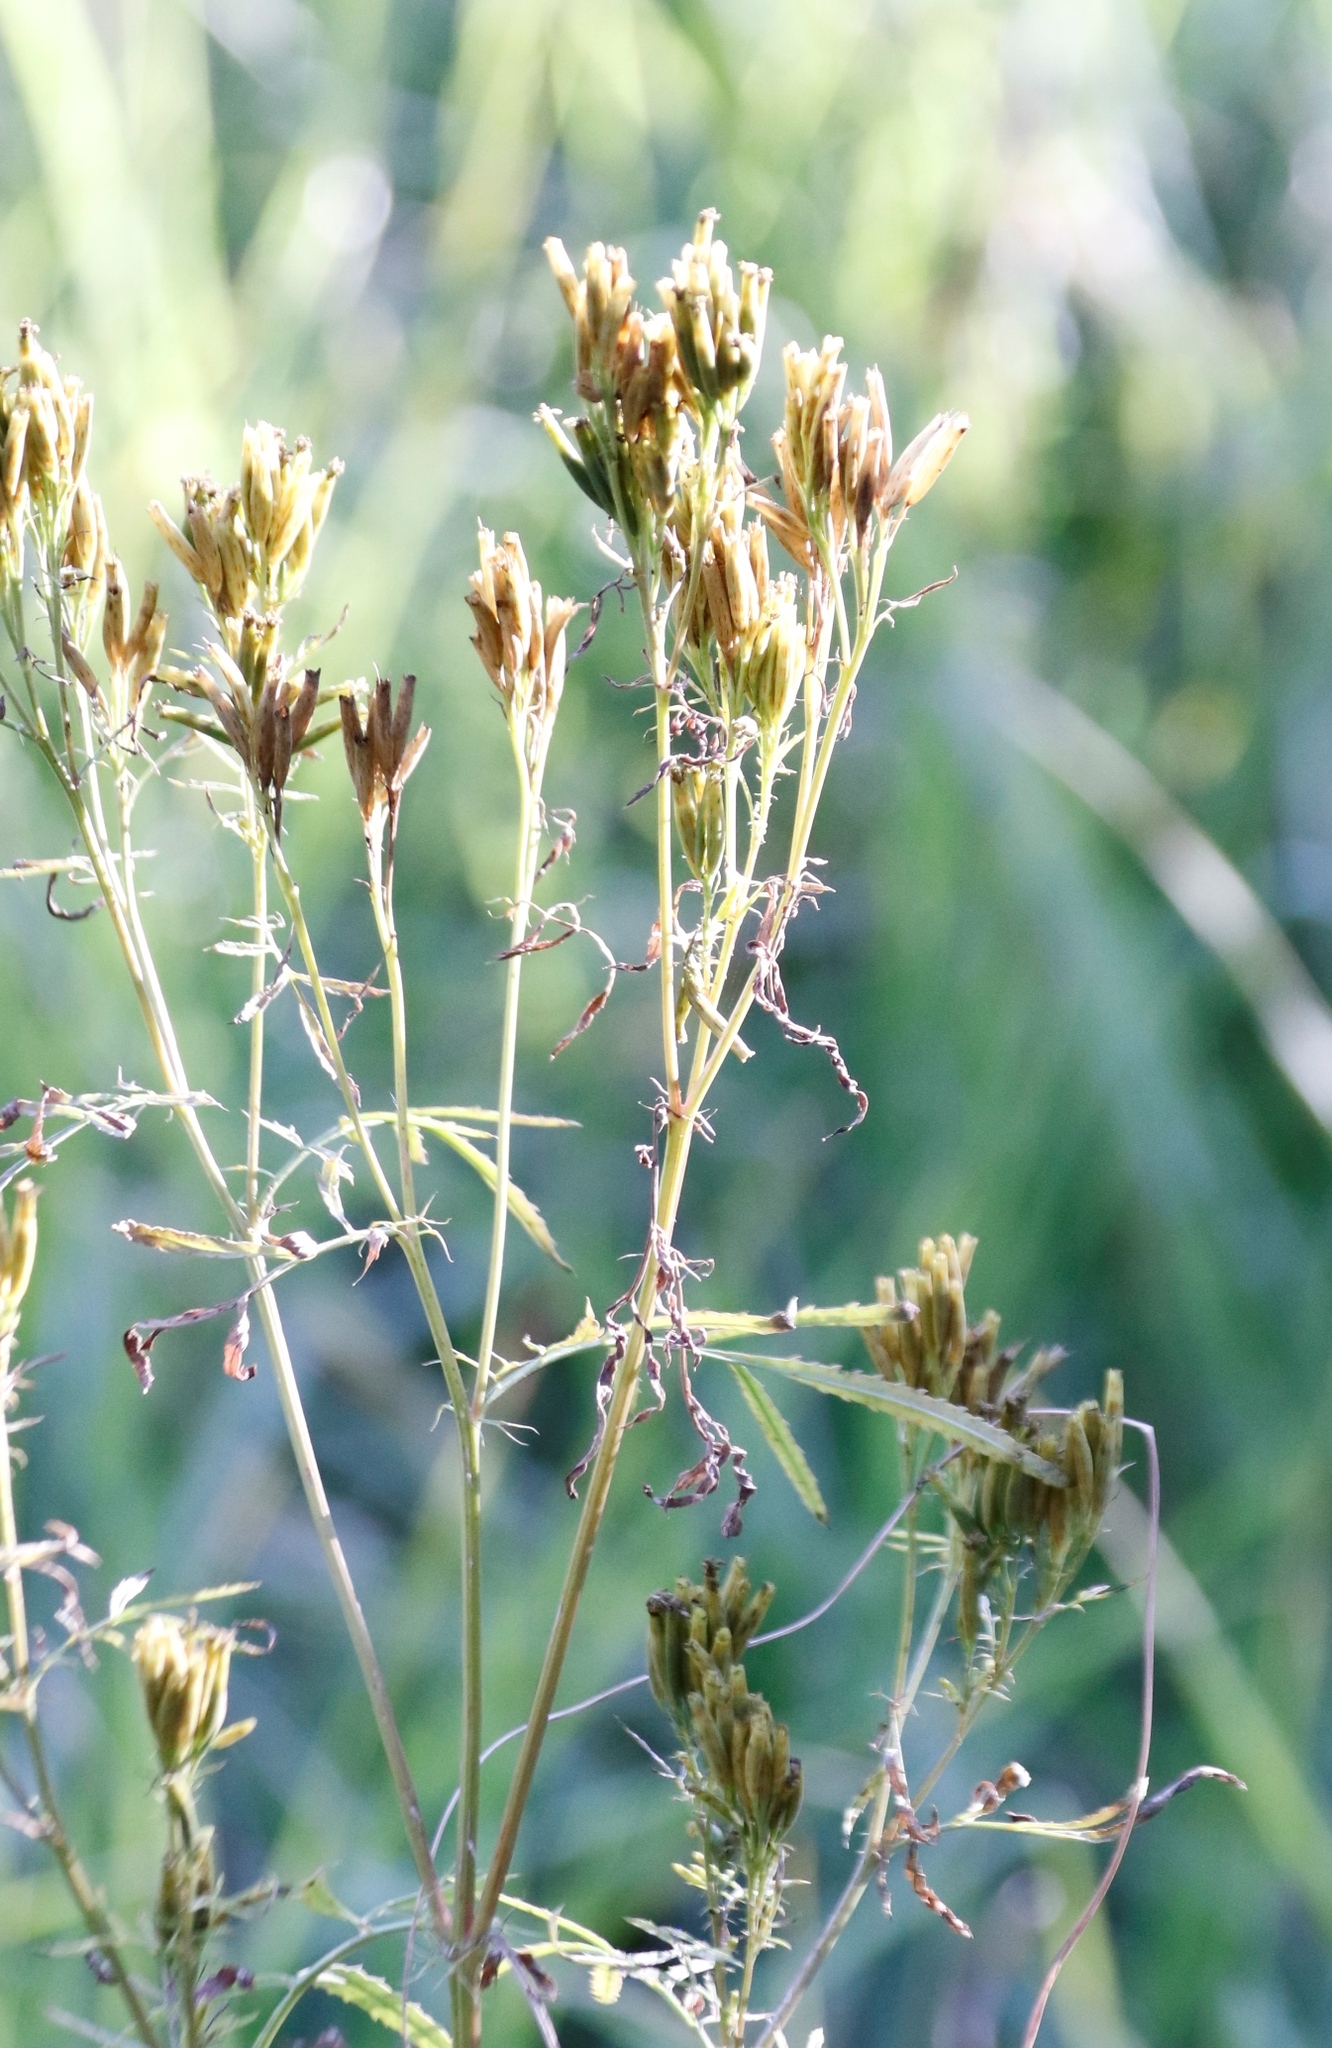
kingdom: Plantae
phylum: Tracheophyta
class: Magnoliopsida
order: Asterales
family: Asteraceae
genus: Tagetes
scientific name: Tagetes minuta
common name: Muster john henry
